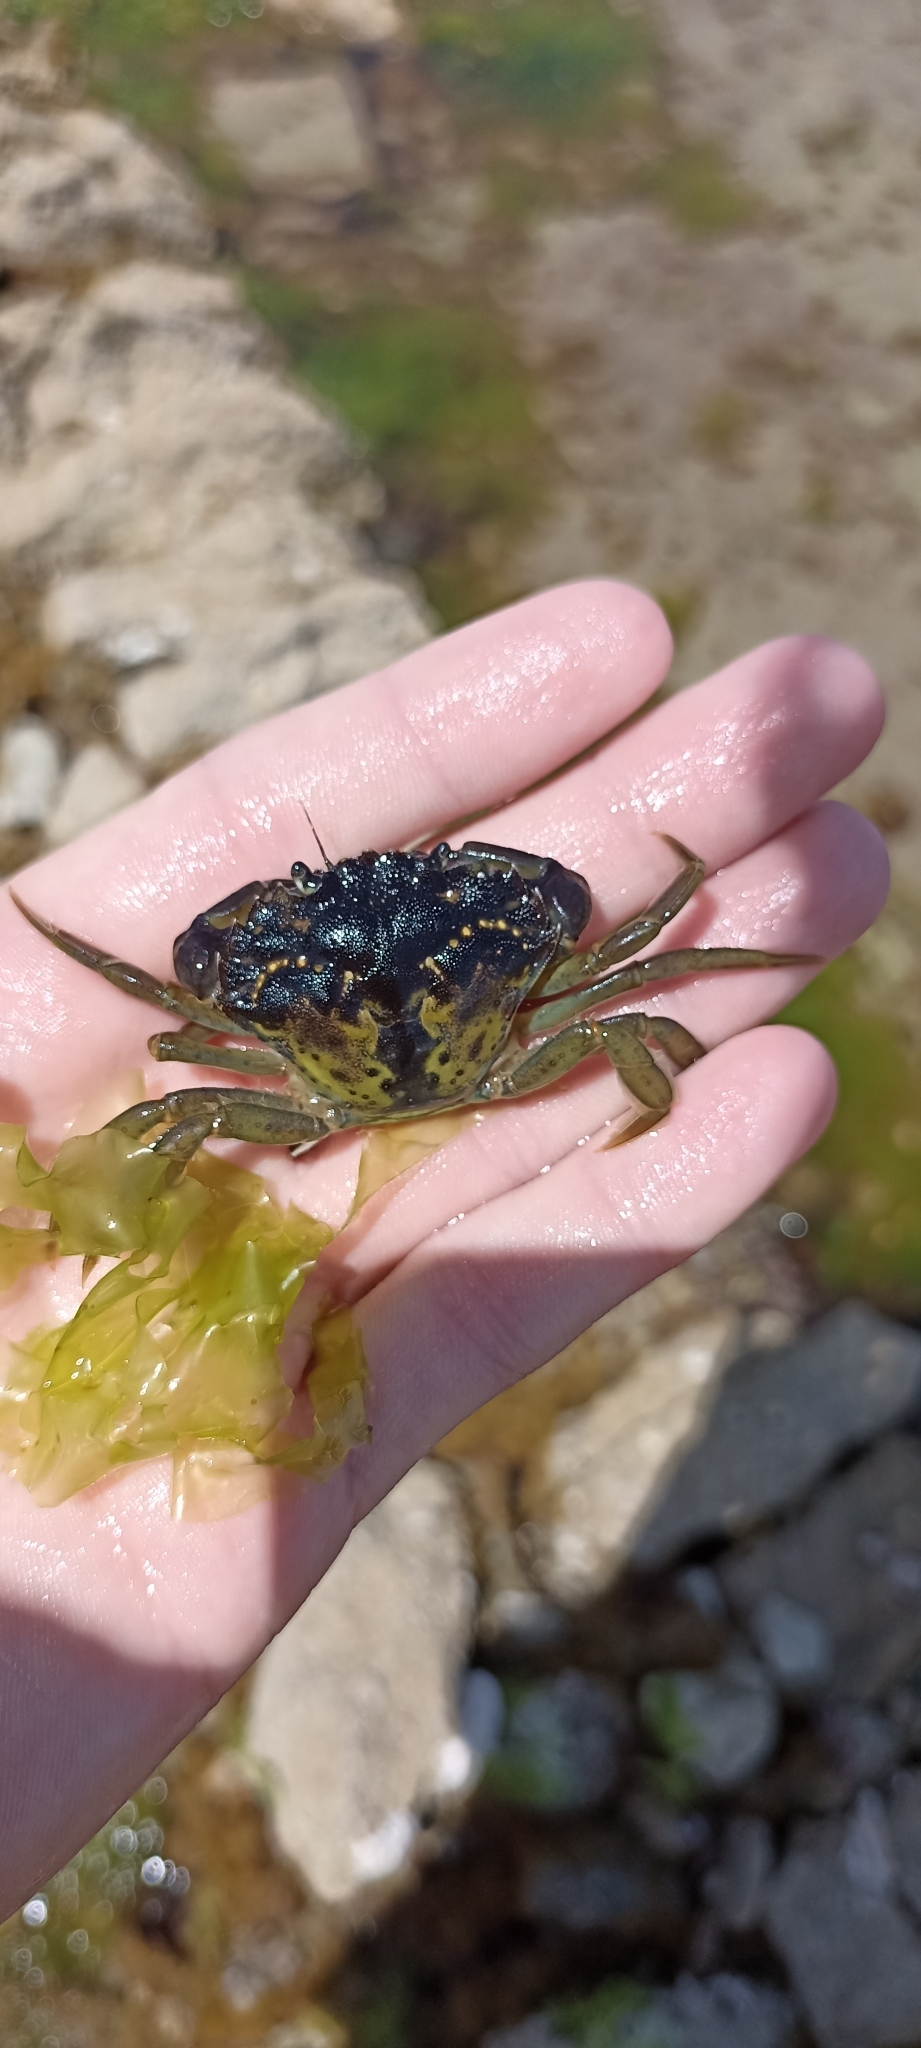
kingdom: Animalia
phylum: Arthropoda
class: Malacostraca
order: Decapoda
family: Carcinidae
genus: Carcinus
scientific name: Carcinus maenas
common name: European green crab
